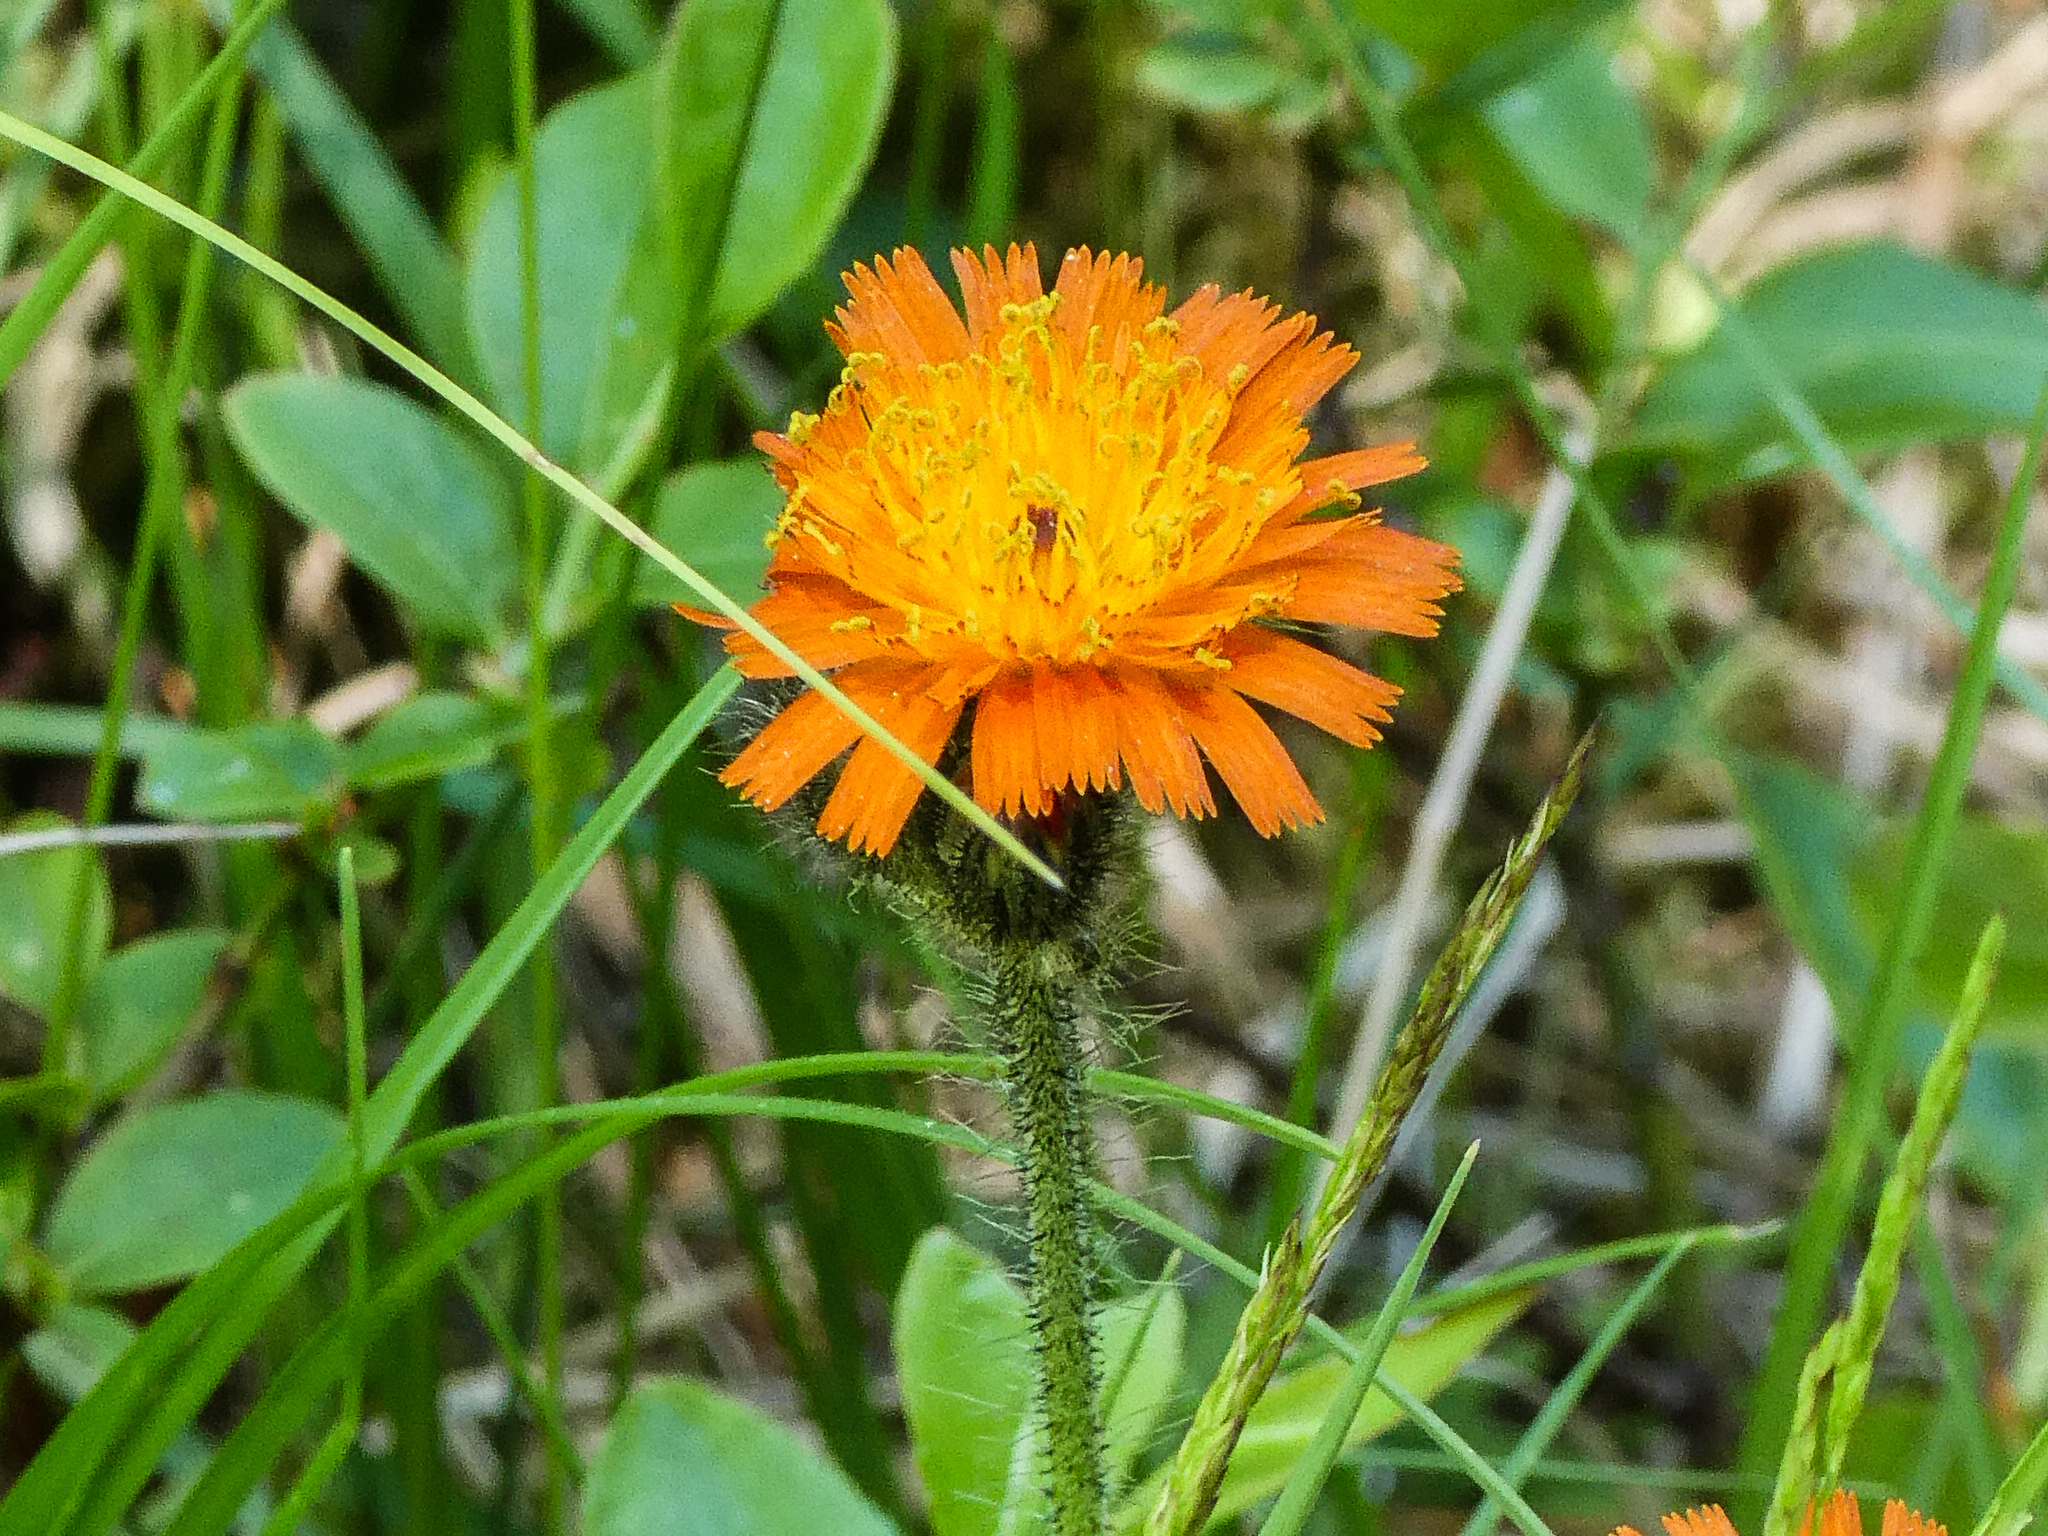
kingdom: Plantae
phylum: Tracheophyta
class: Magnoliopsida
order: Asterales
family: Asteraceae
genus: Pilosella
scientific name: Pilosella aurantiaca
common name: Fox-and-cubs
